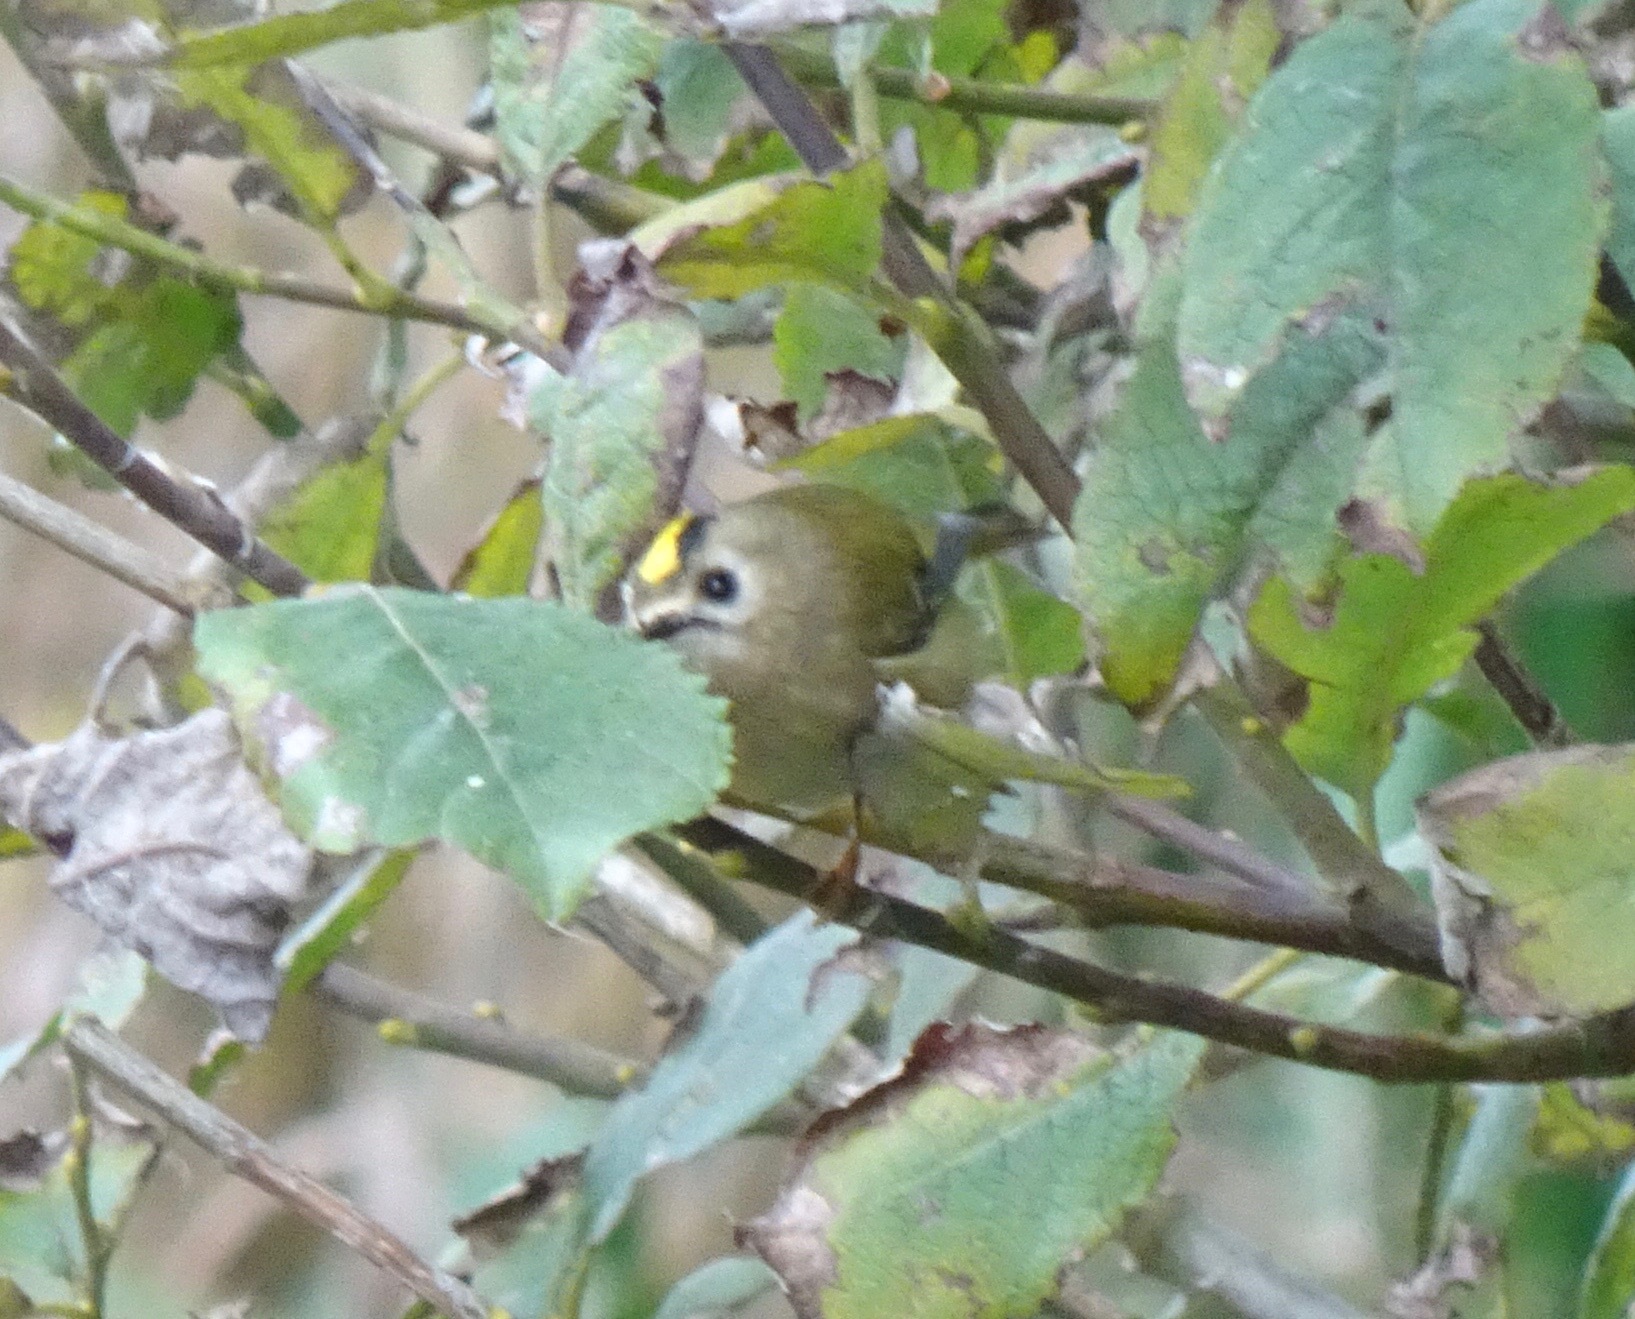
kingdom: Animalia
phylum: Chordata
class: Aves
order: Passeriformes
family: Regulidae
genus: Regulus
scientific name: Regulus regulus
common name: Goldcrest
